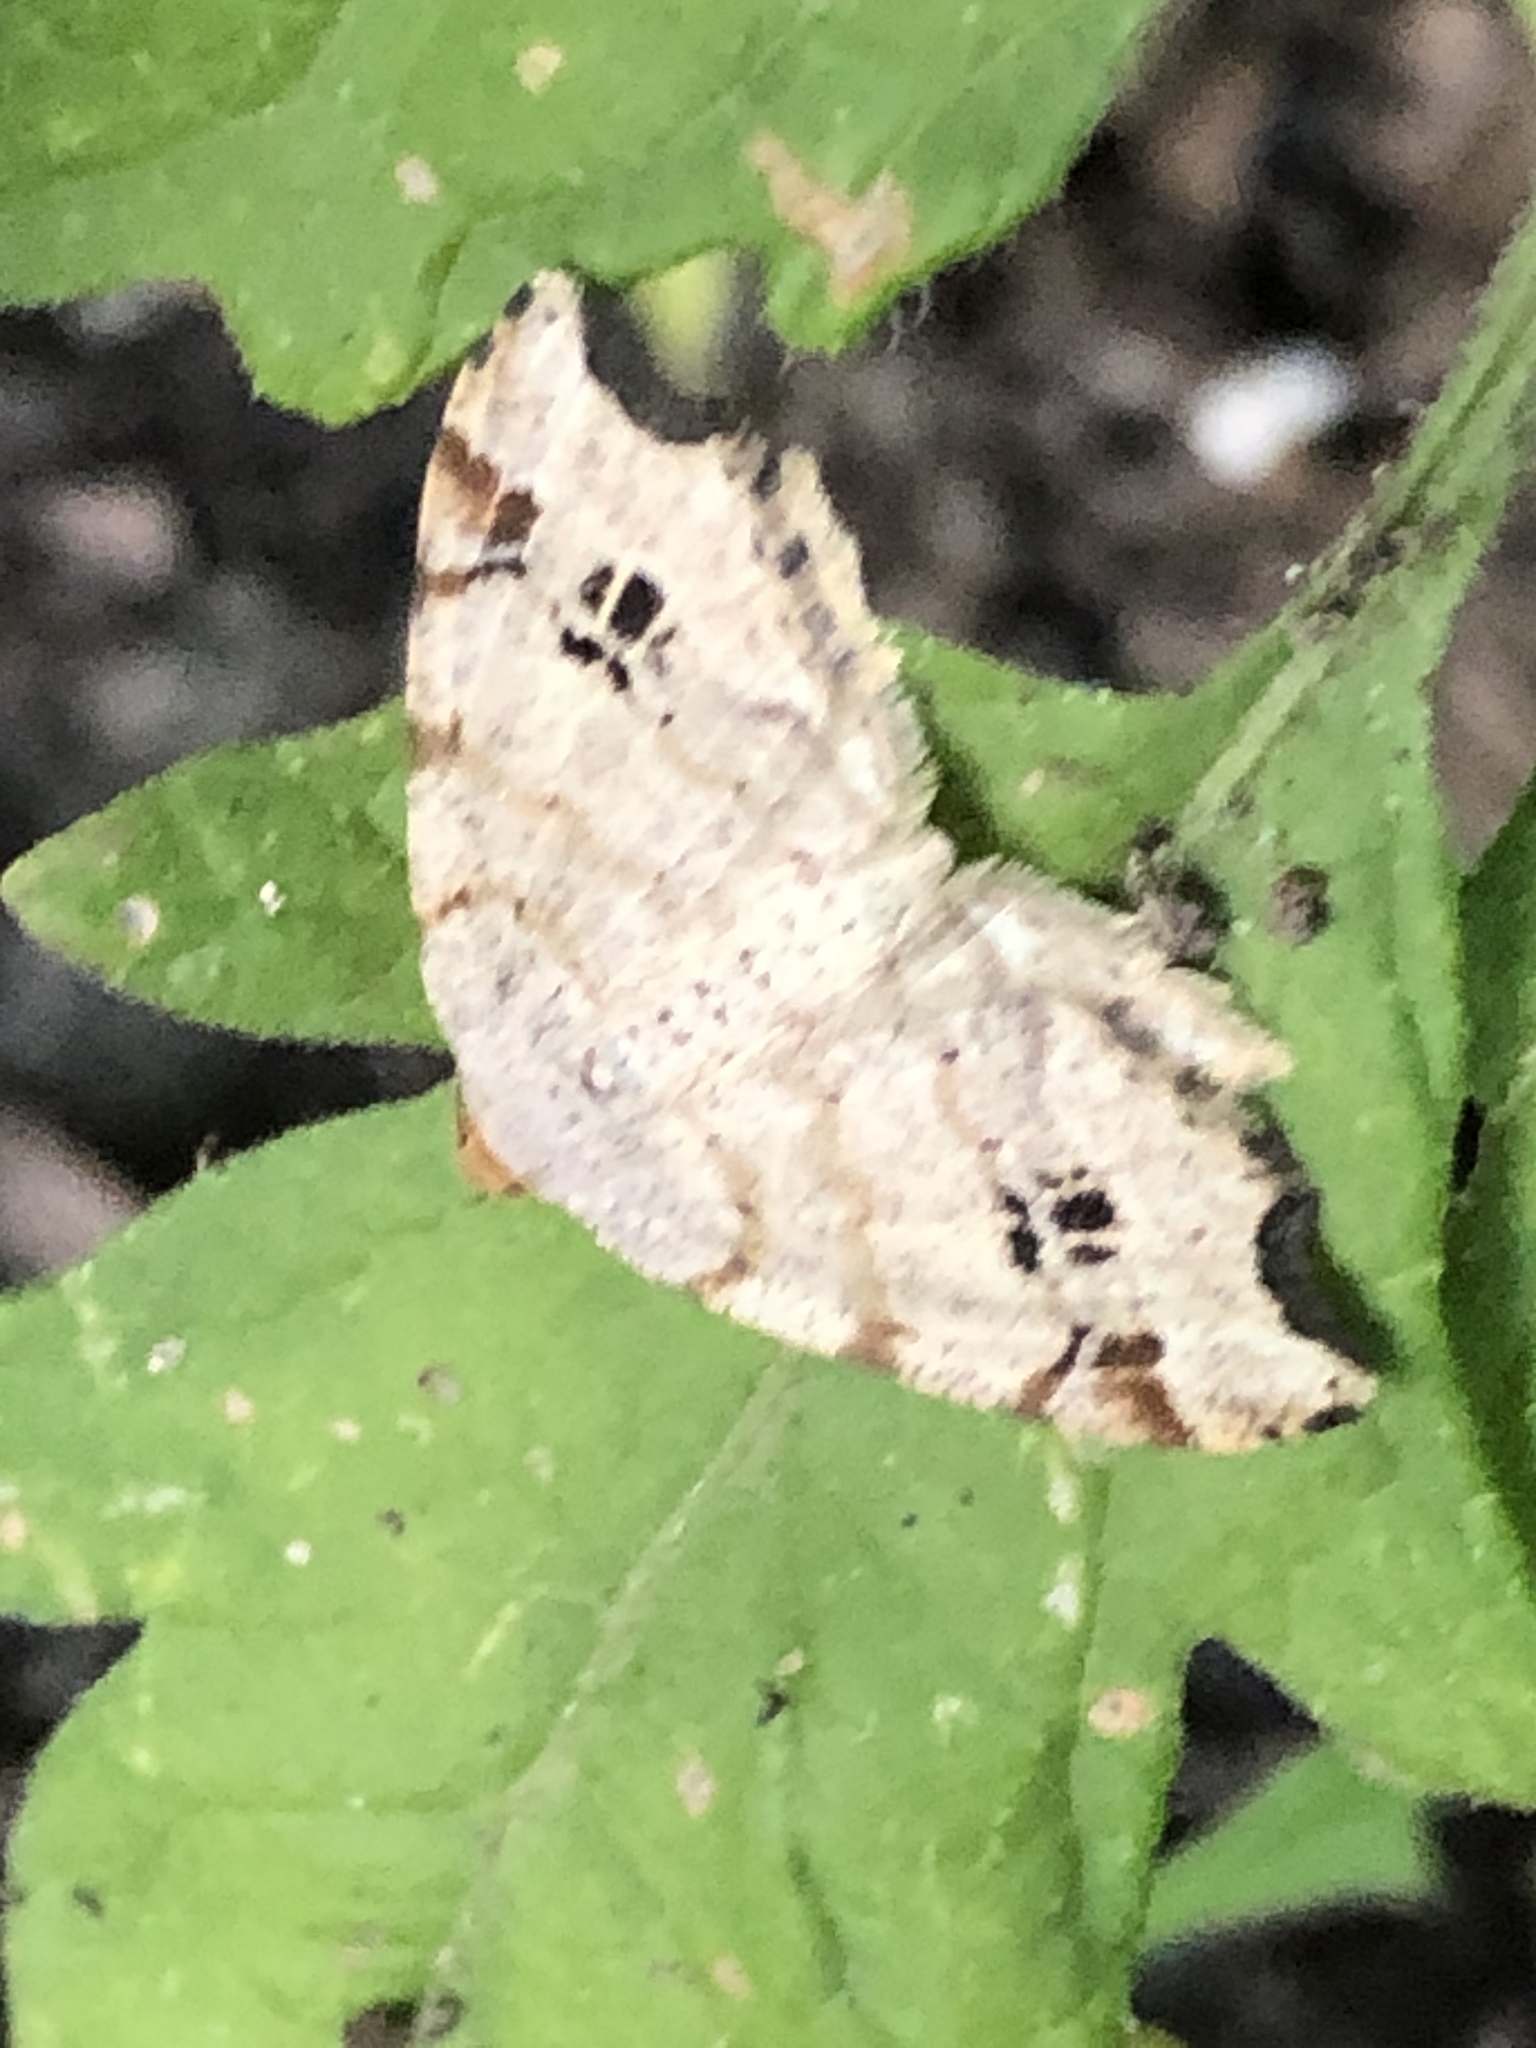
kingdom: Animalia
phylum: Arthropoda
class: Insecta
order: Lepidoptera
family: Geometridae
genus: Macaria
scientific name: Macaria aemulataria
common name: Common angle
